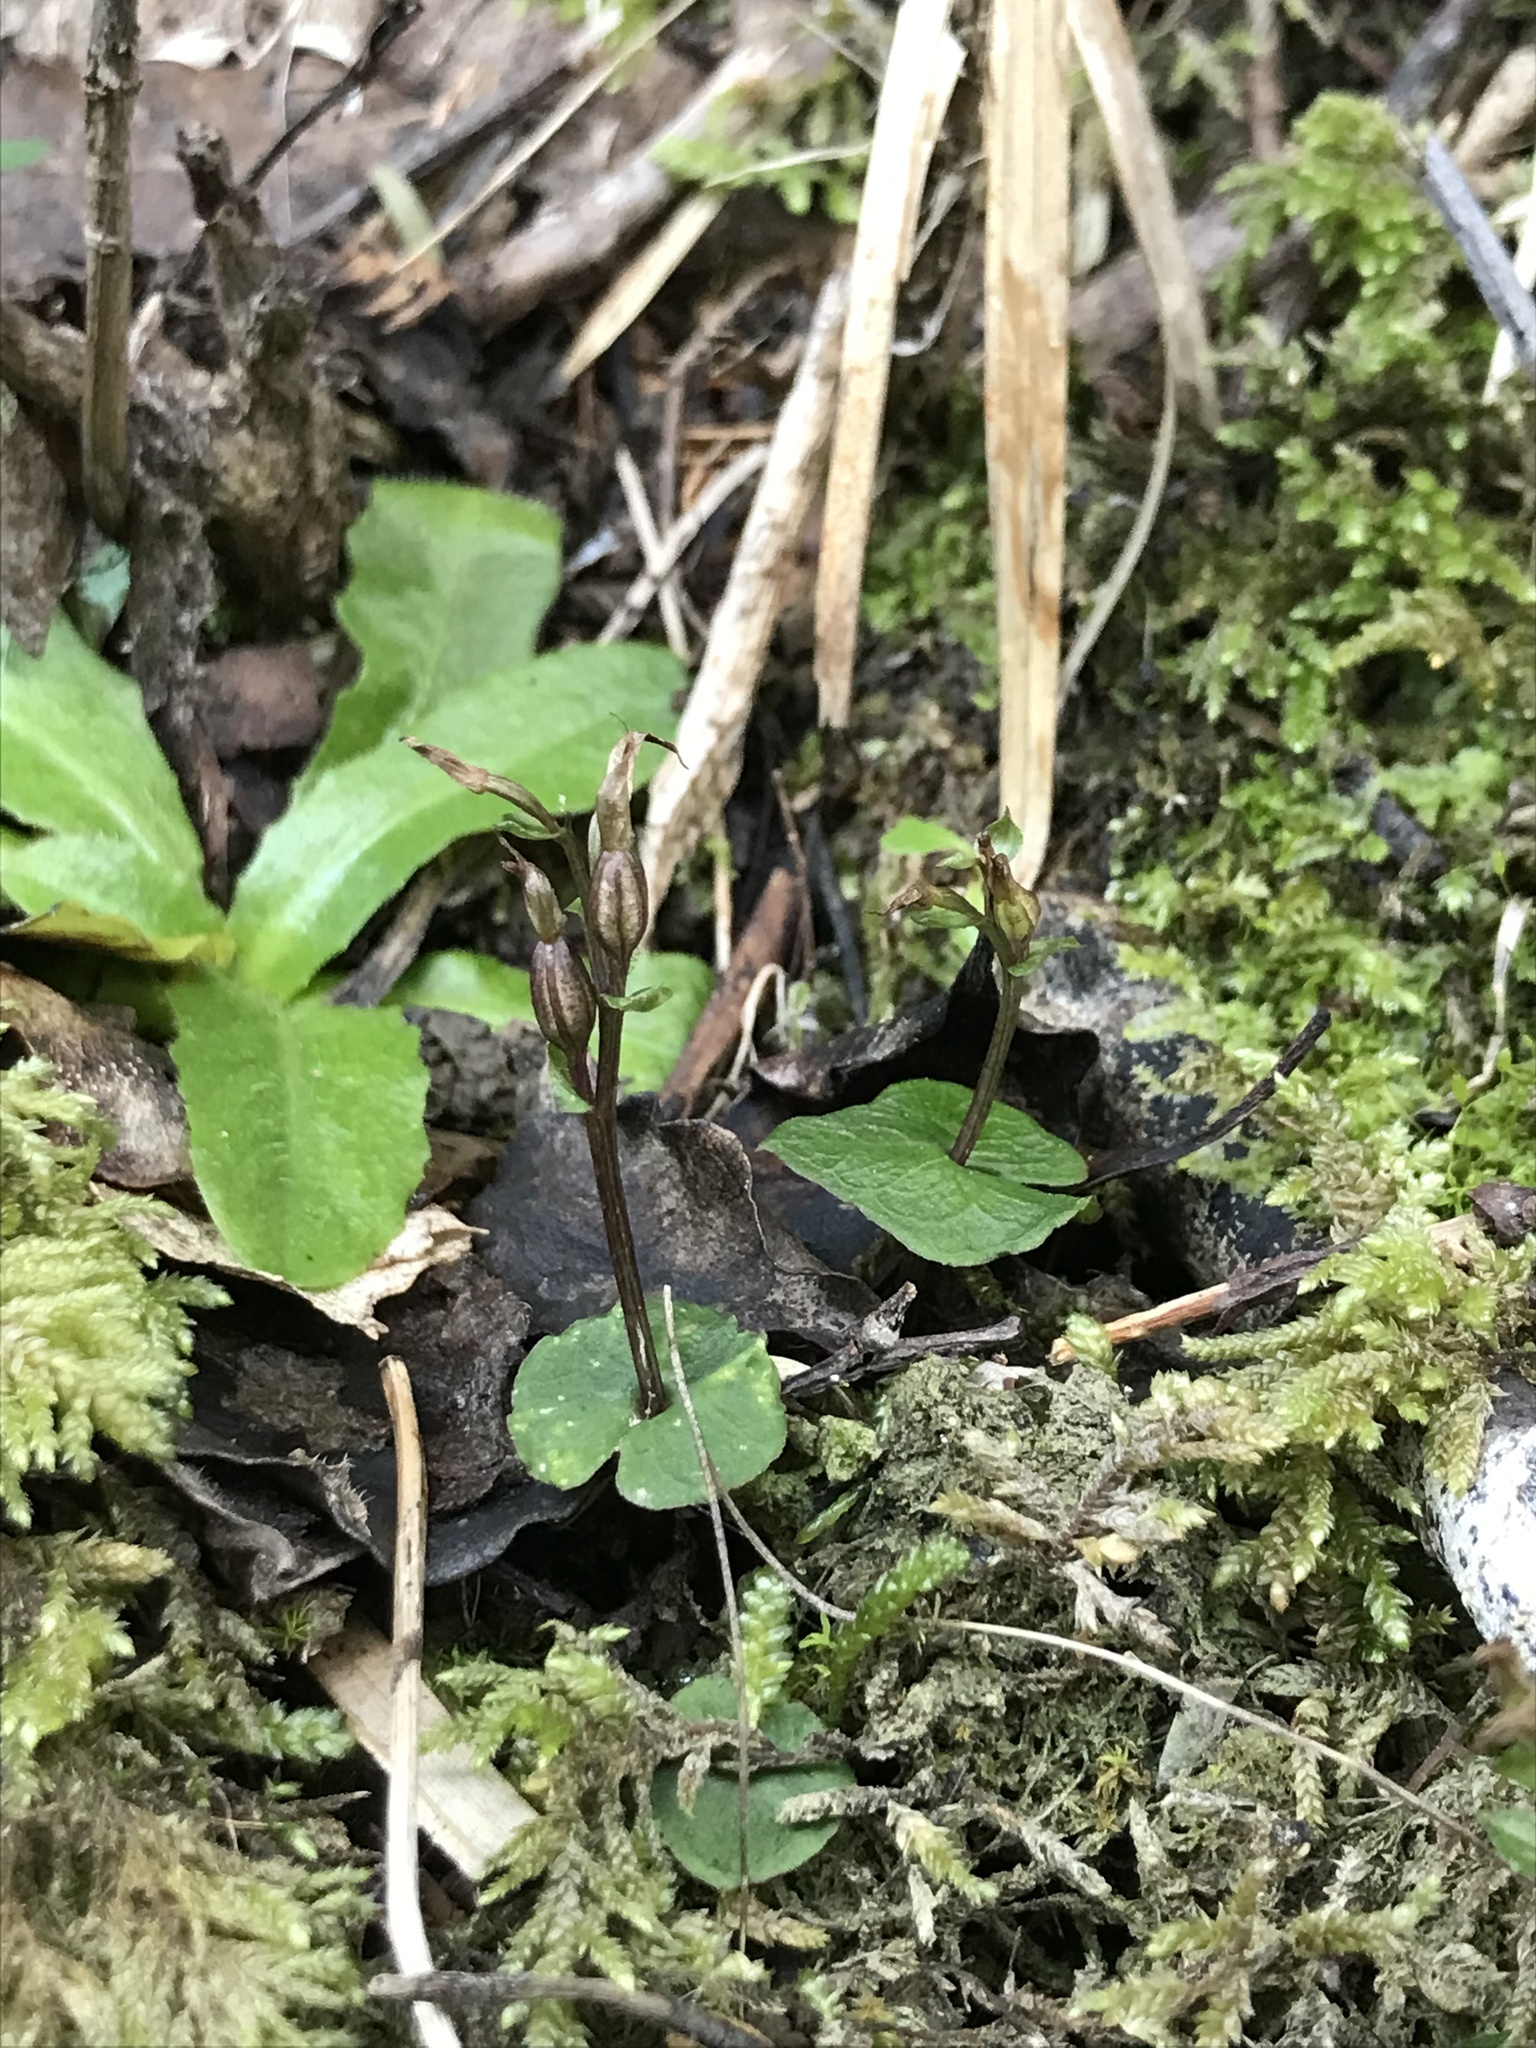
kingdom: Plantae
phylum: Tracheophyta
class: Liliopsida
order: Asparagales
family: Orchidaceae
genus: Acianthus
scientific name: Acianthus sinclairii
